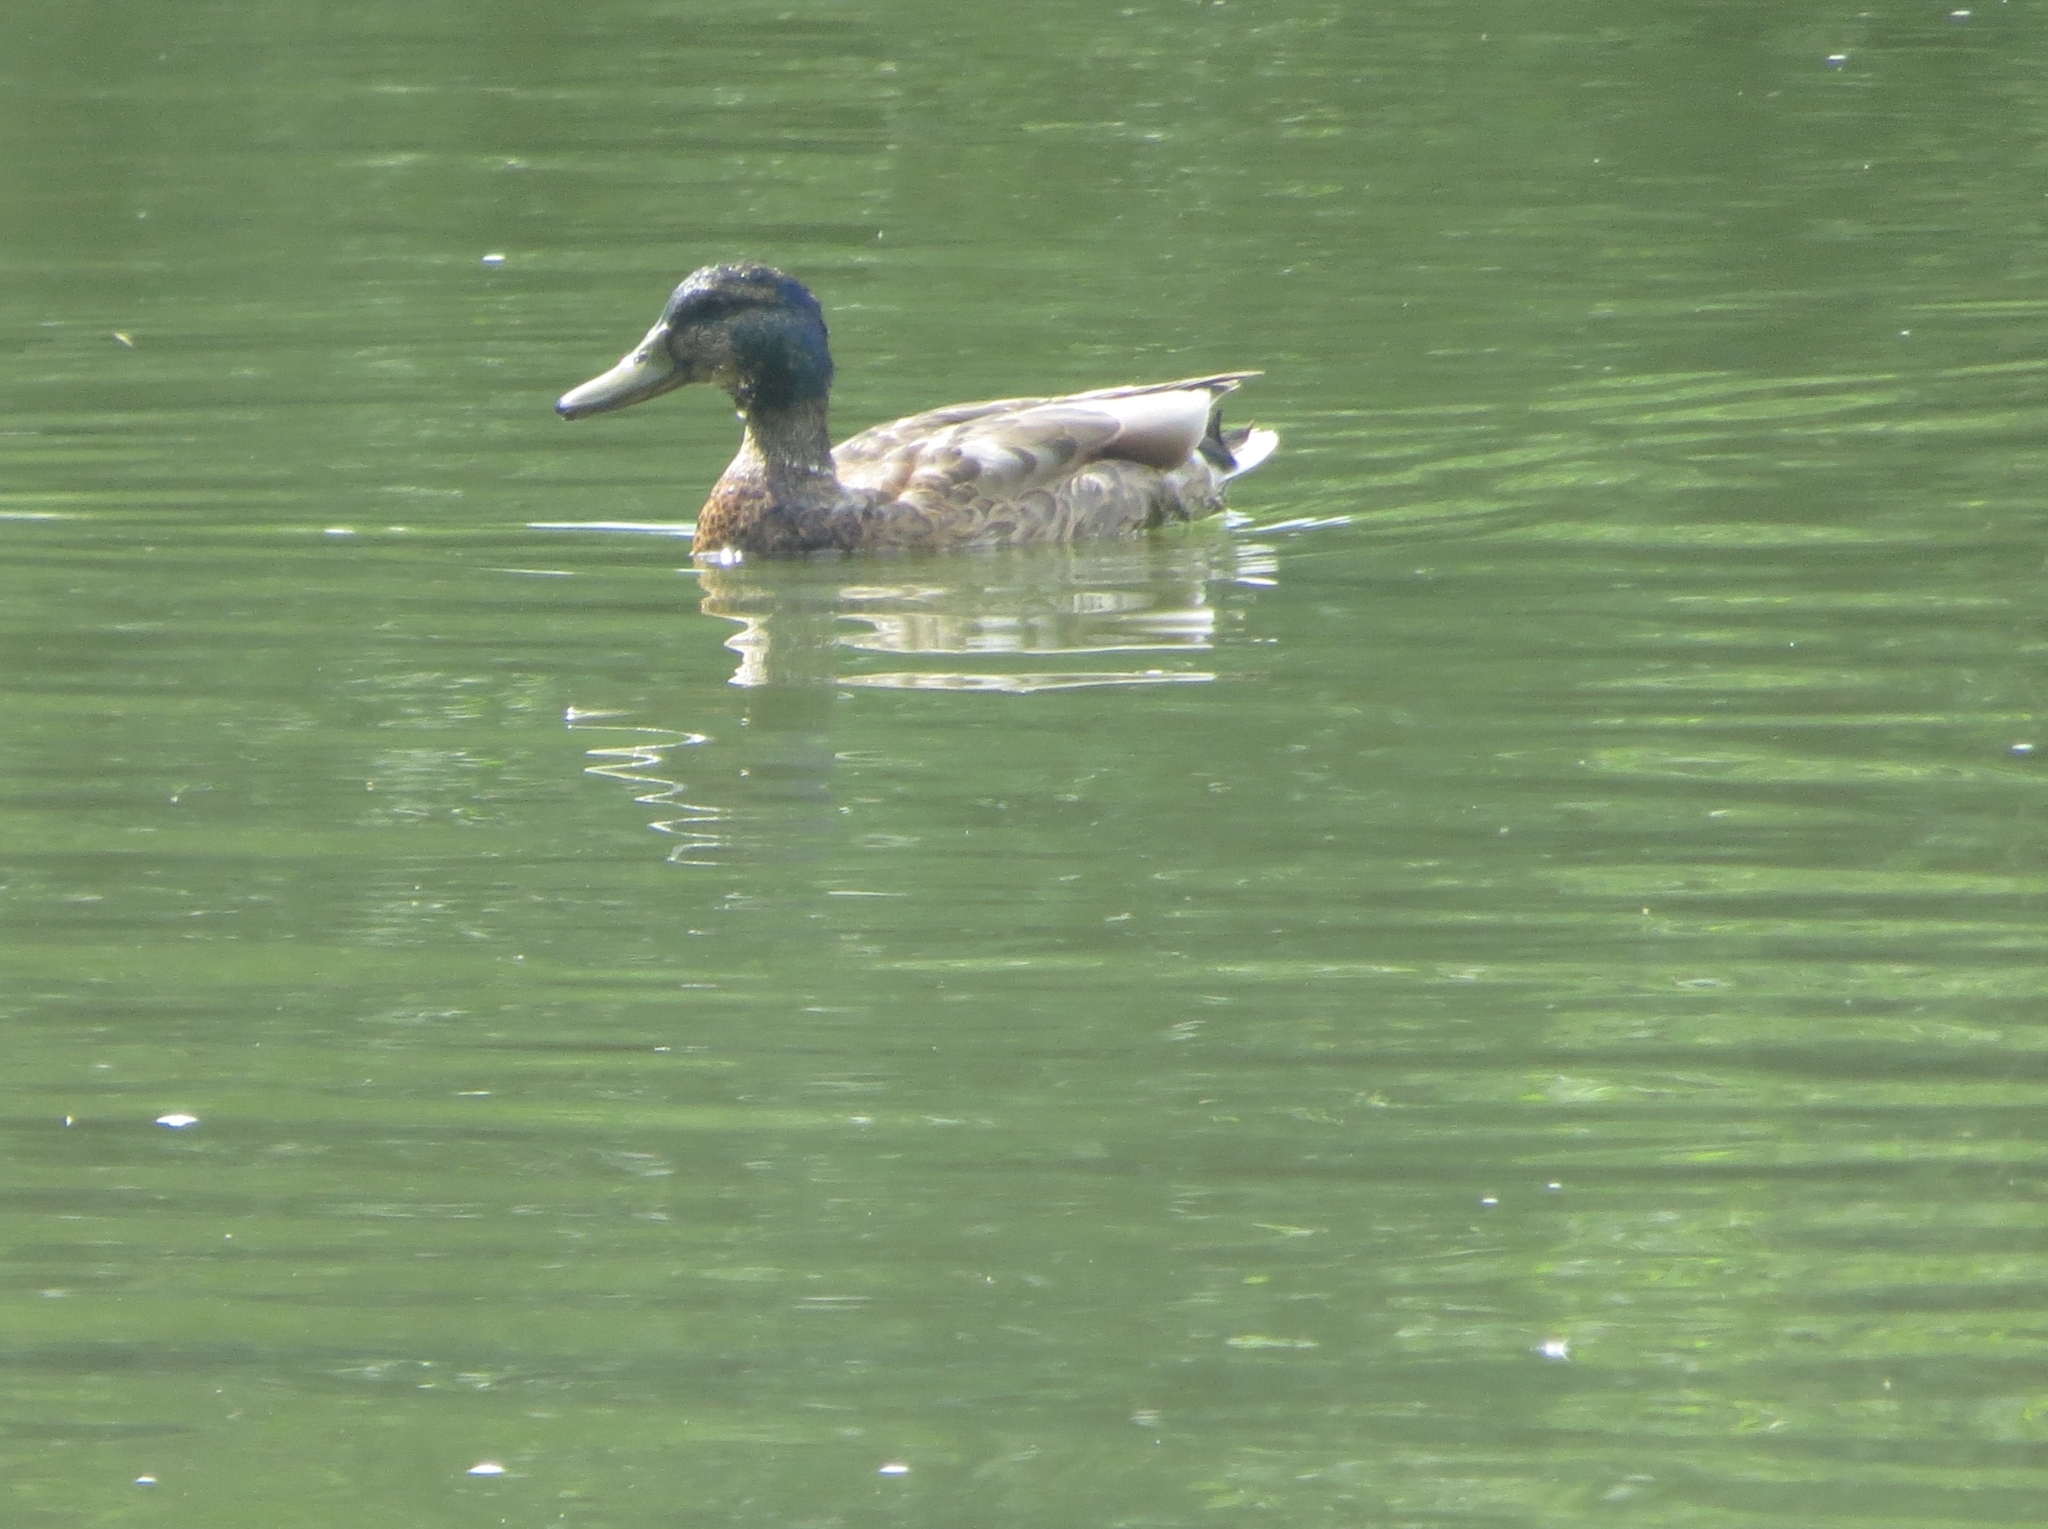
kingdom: Animalia
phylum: Chordata
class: Aves
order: Anseriformes
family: Anatidae
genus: Anas
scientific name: Anas platyrhynchos
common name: Mallard
